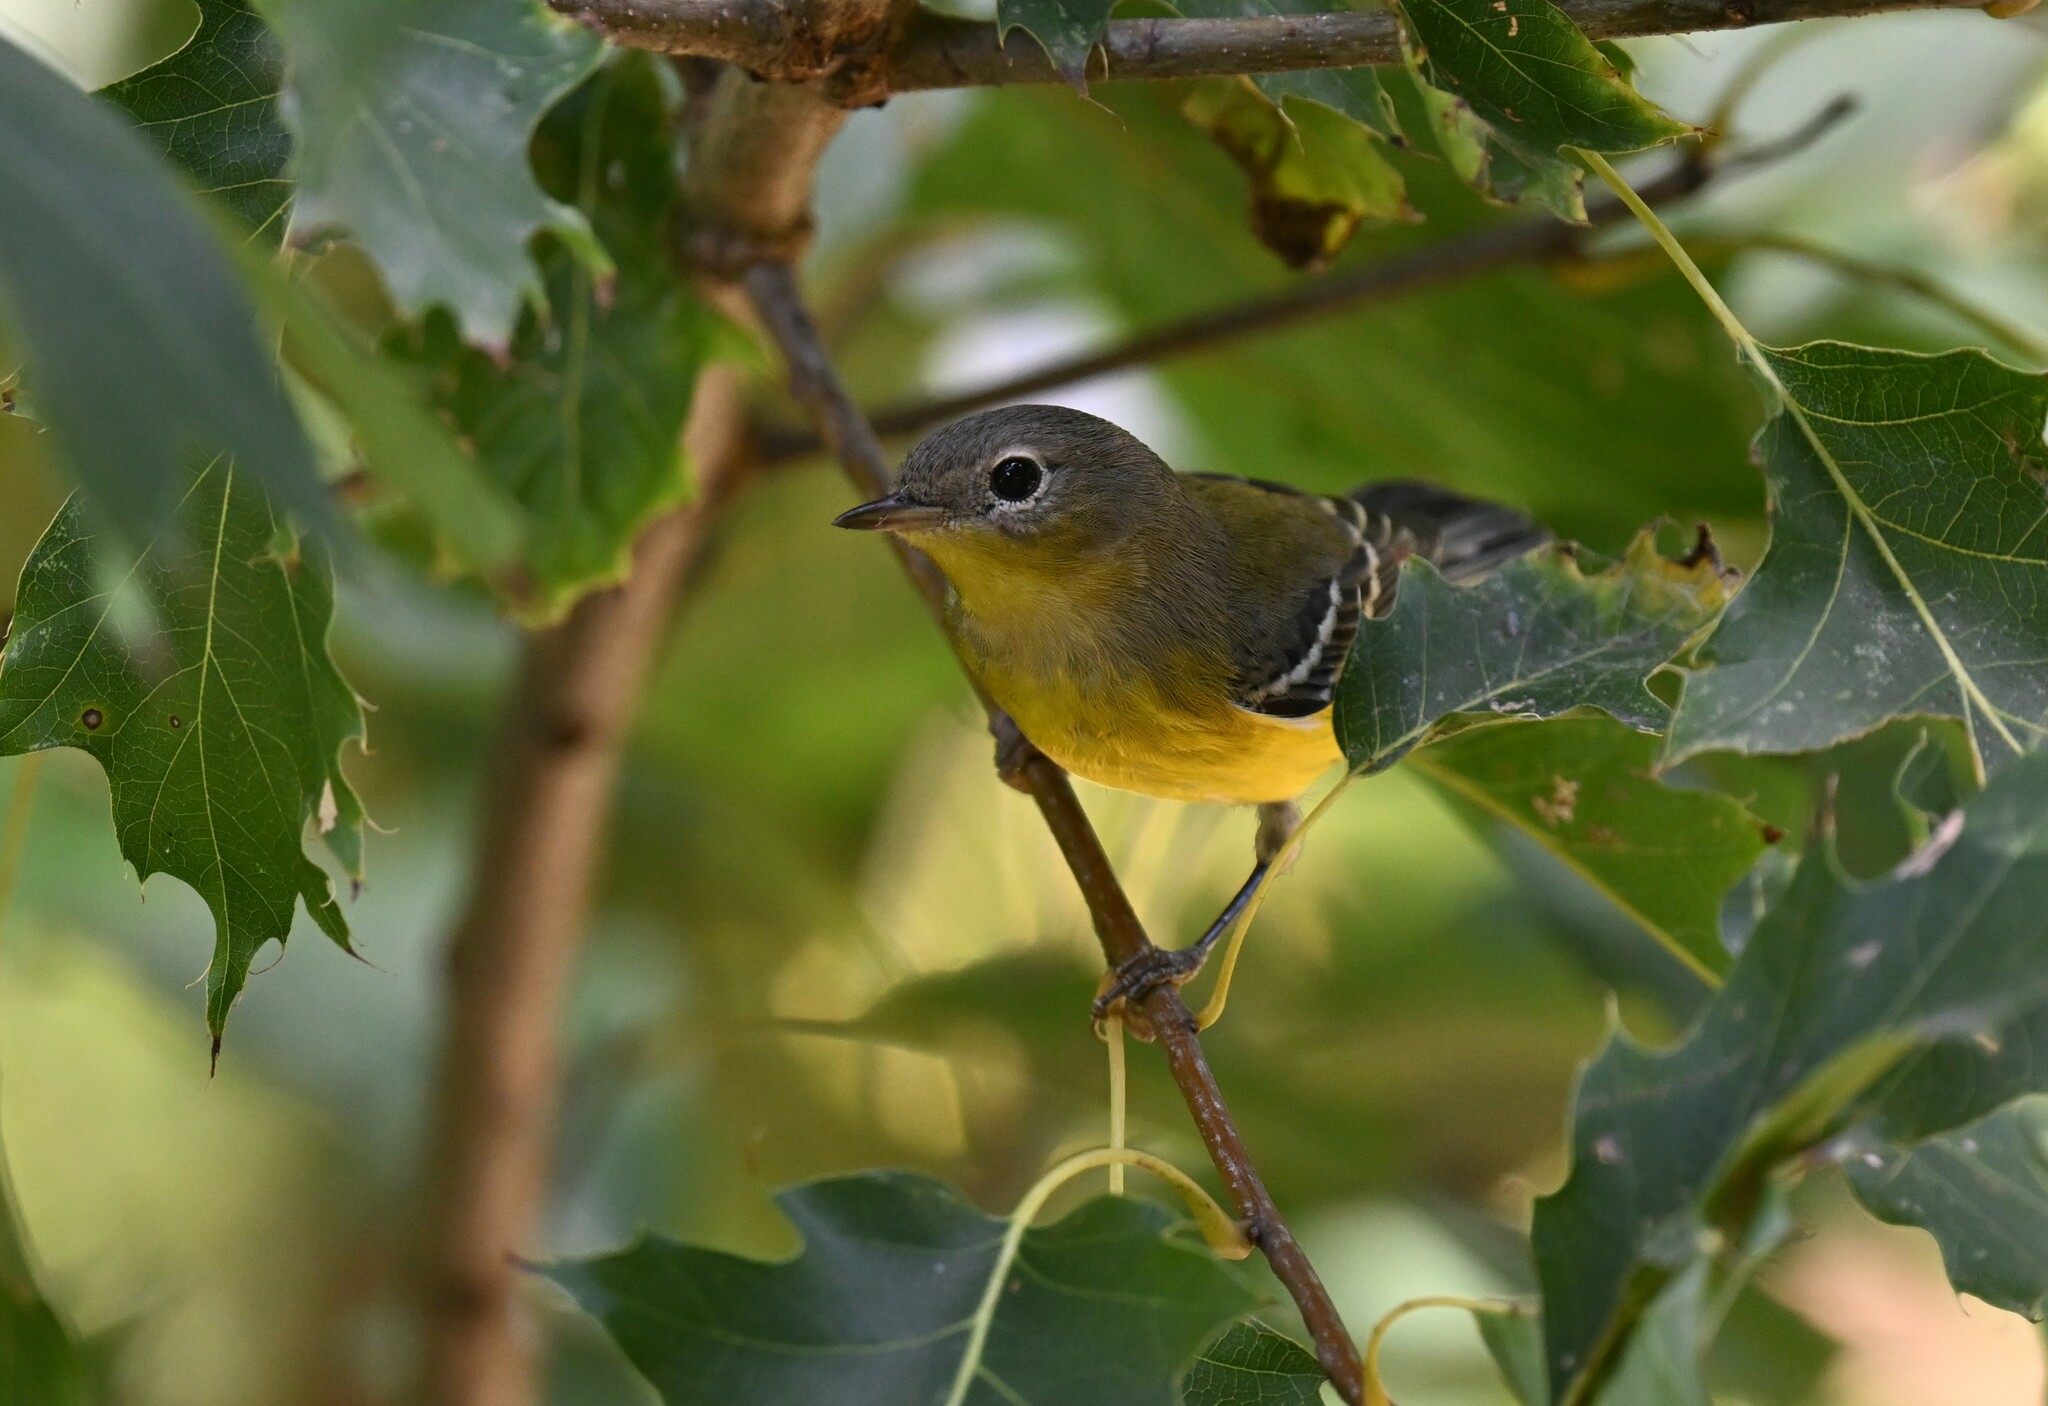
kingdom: Animalia
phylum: Chordata
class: Aves
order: Passeriformes
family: Parulidae
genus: Setophaga
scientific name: Setophaga magnolia
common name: Magnolia warbler
